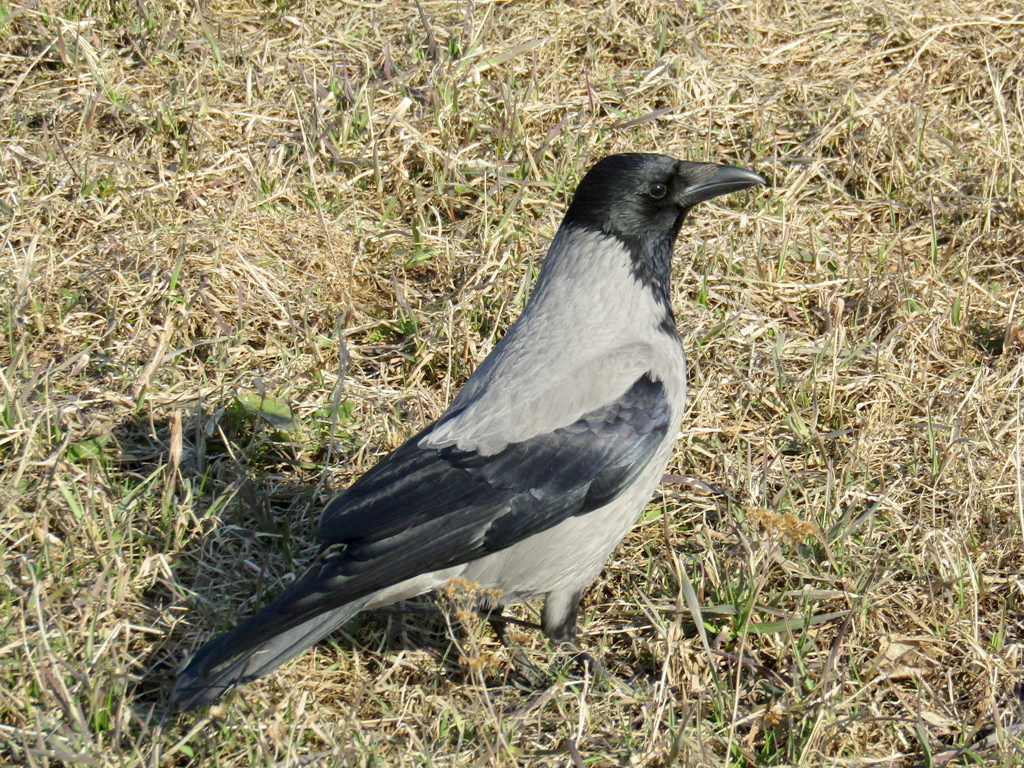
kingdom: Animalia
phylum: Chordata
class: Aves
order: Passeriformes
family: Corvidae
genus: Corvus
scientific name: Corvus cornix
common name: Hooded crow
